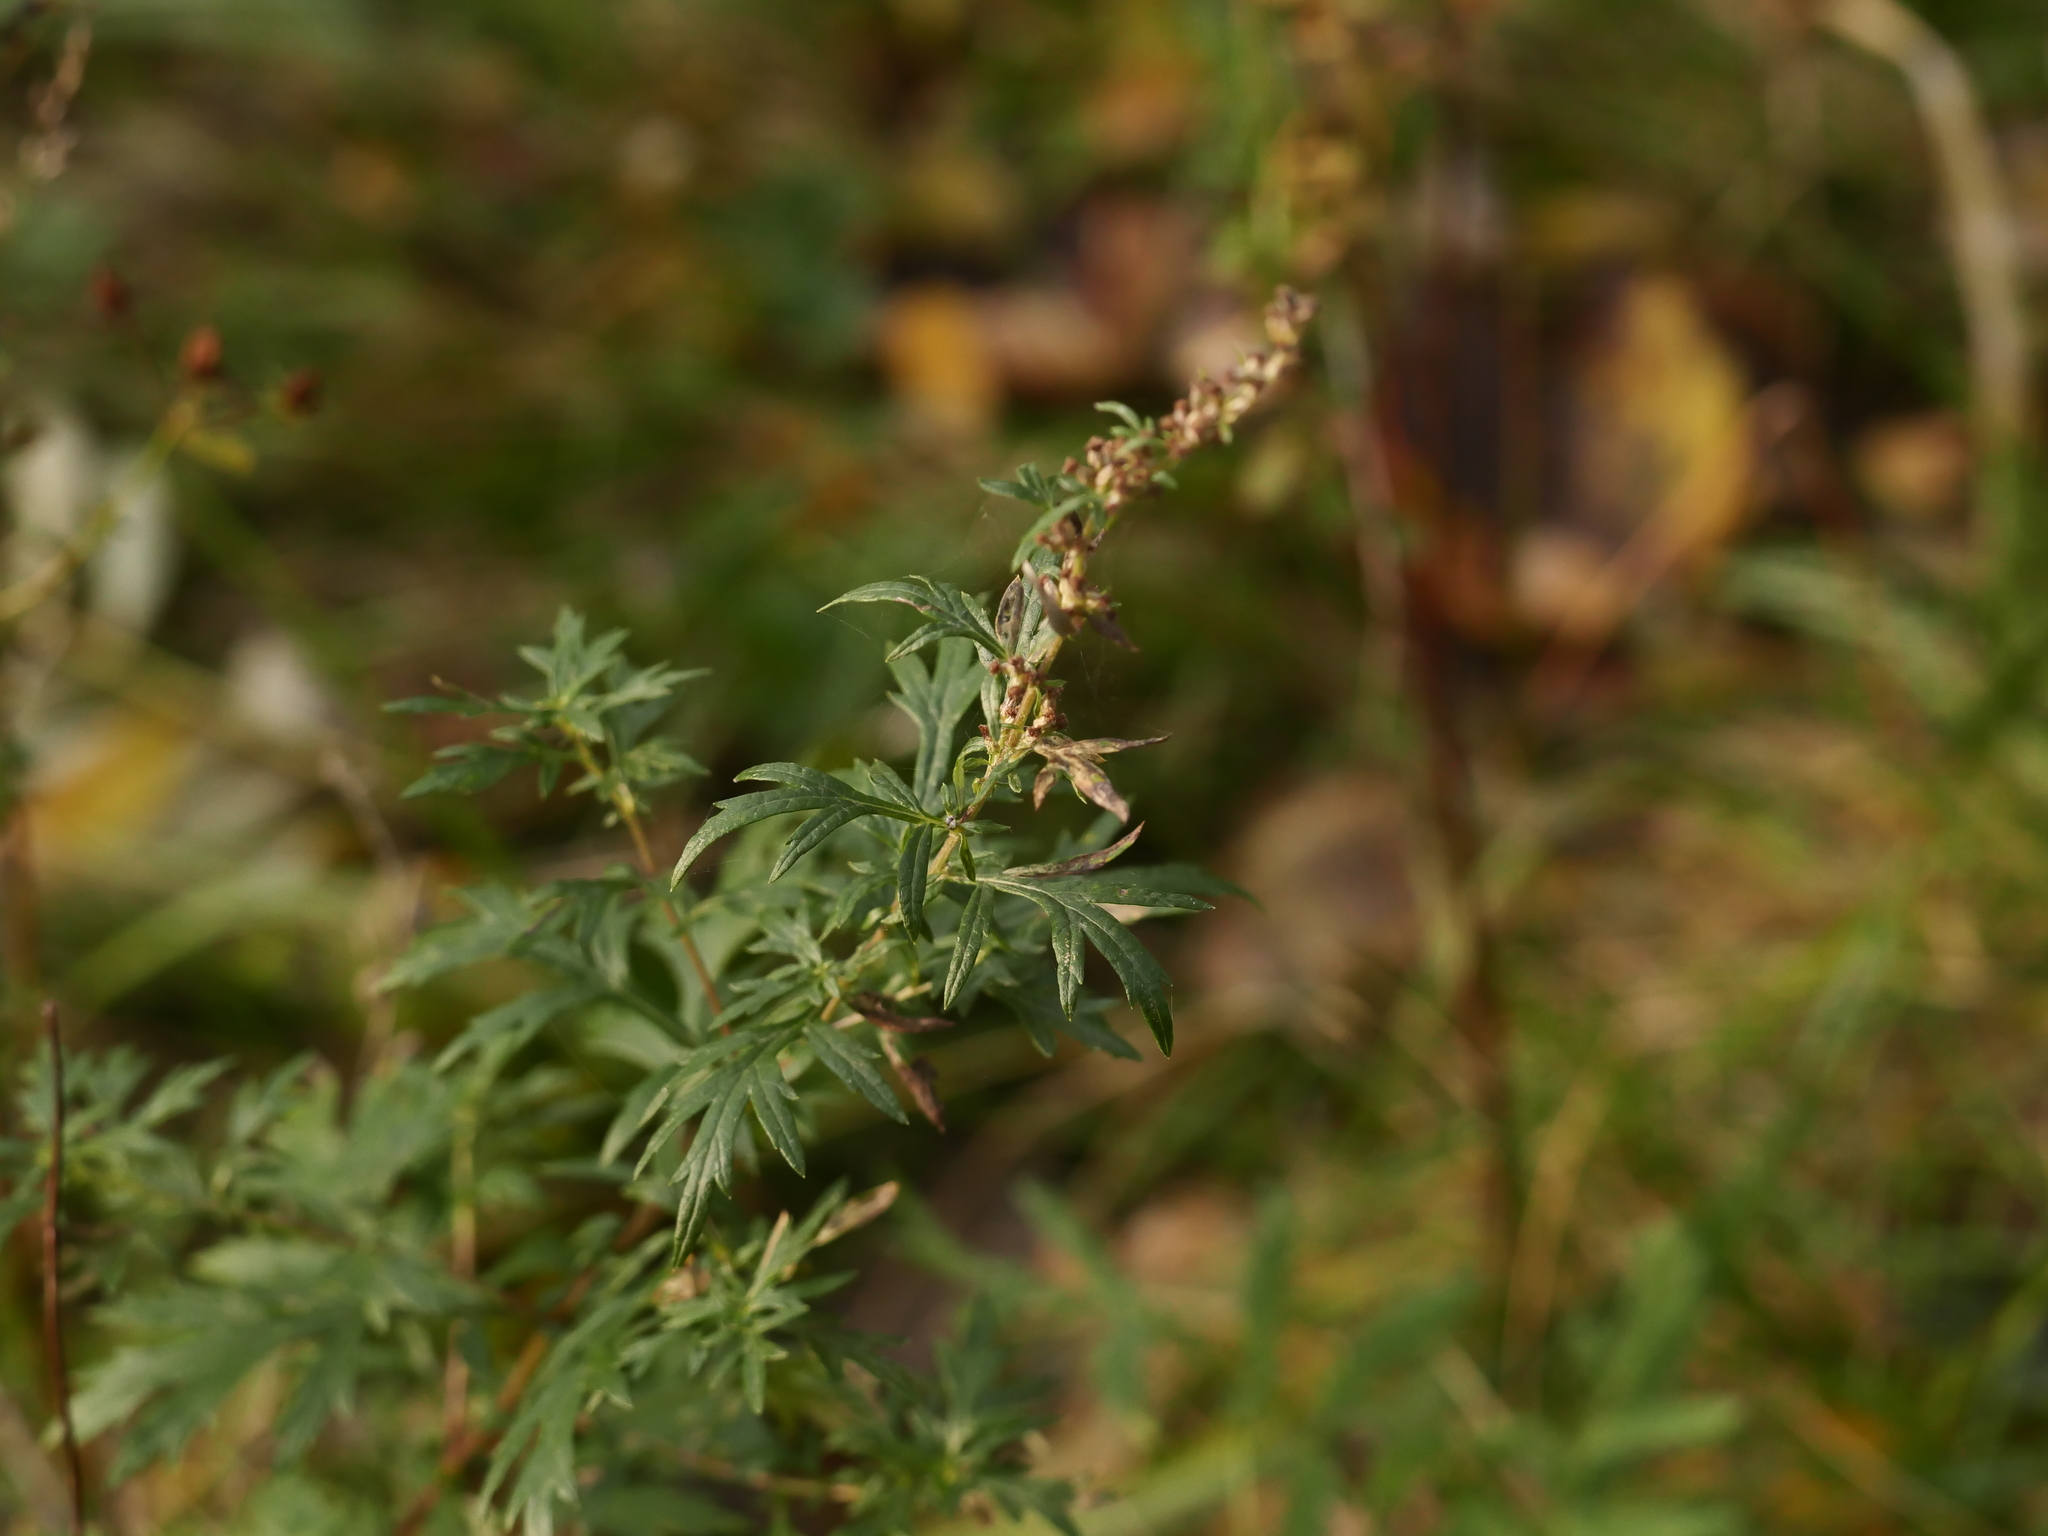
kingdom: Plantae
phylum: Tracheophyta
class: Magnoliopsida
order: Asterales
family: Asteraceae
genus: Artemisia
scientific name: Artemisia vulgaris
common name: Mugwort
